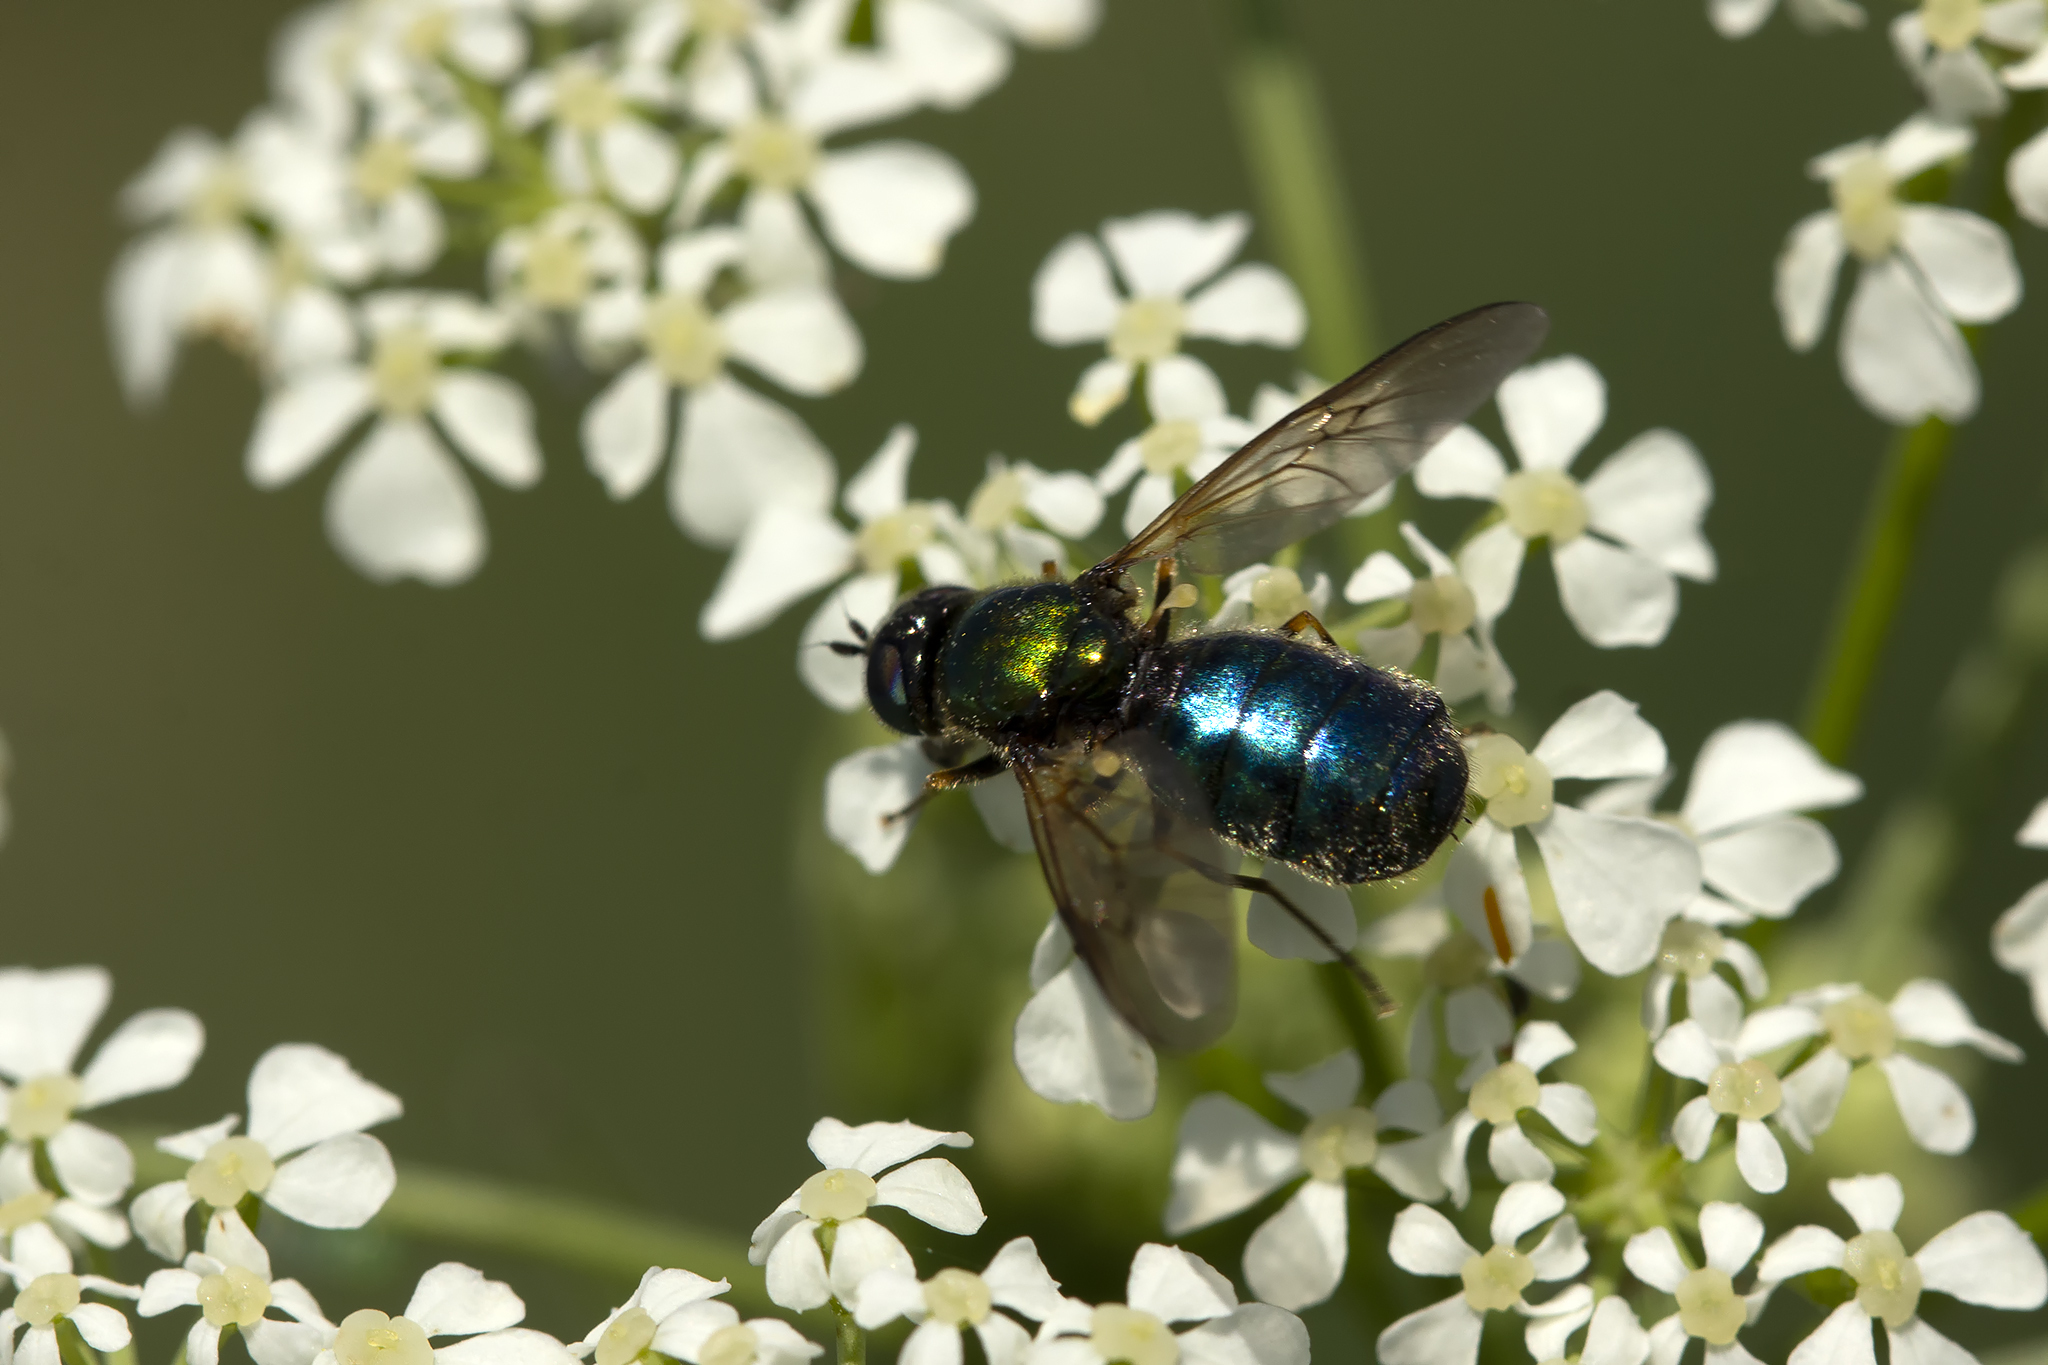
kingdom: Animalia
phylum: Arthropoda
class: Insecta
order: Diptera
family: Stratiomyidae
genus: Chloromyia
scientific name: Chloromyia formosa
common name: Soldier fly
